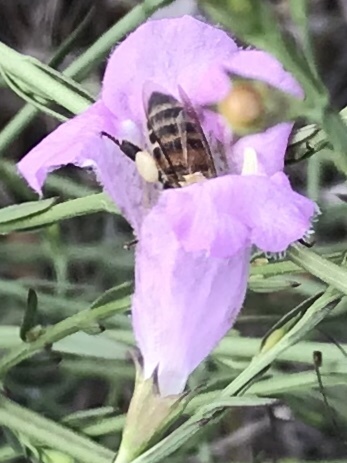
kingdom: Animalia
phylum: Arthropoda
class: Insecta
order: Hymenoptera
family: Apidae
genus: Apis
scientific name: Apis mellifera
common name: Honey bee
